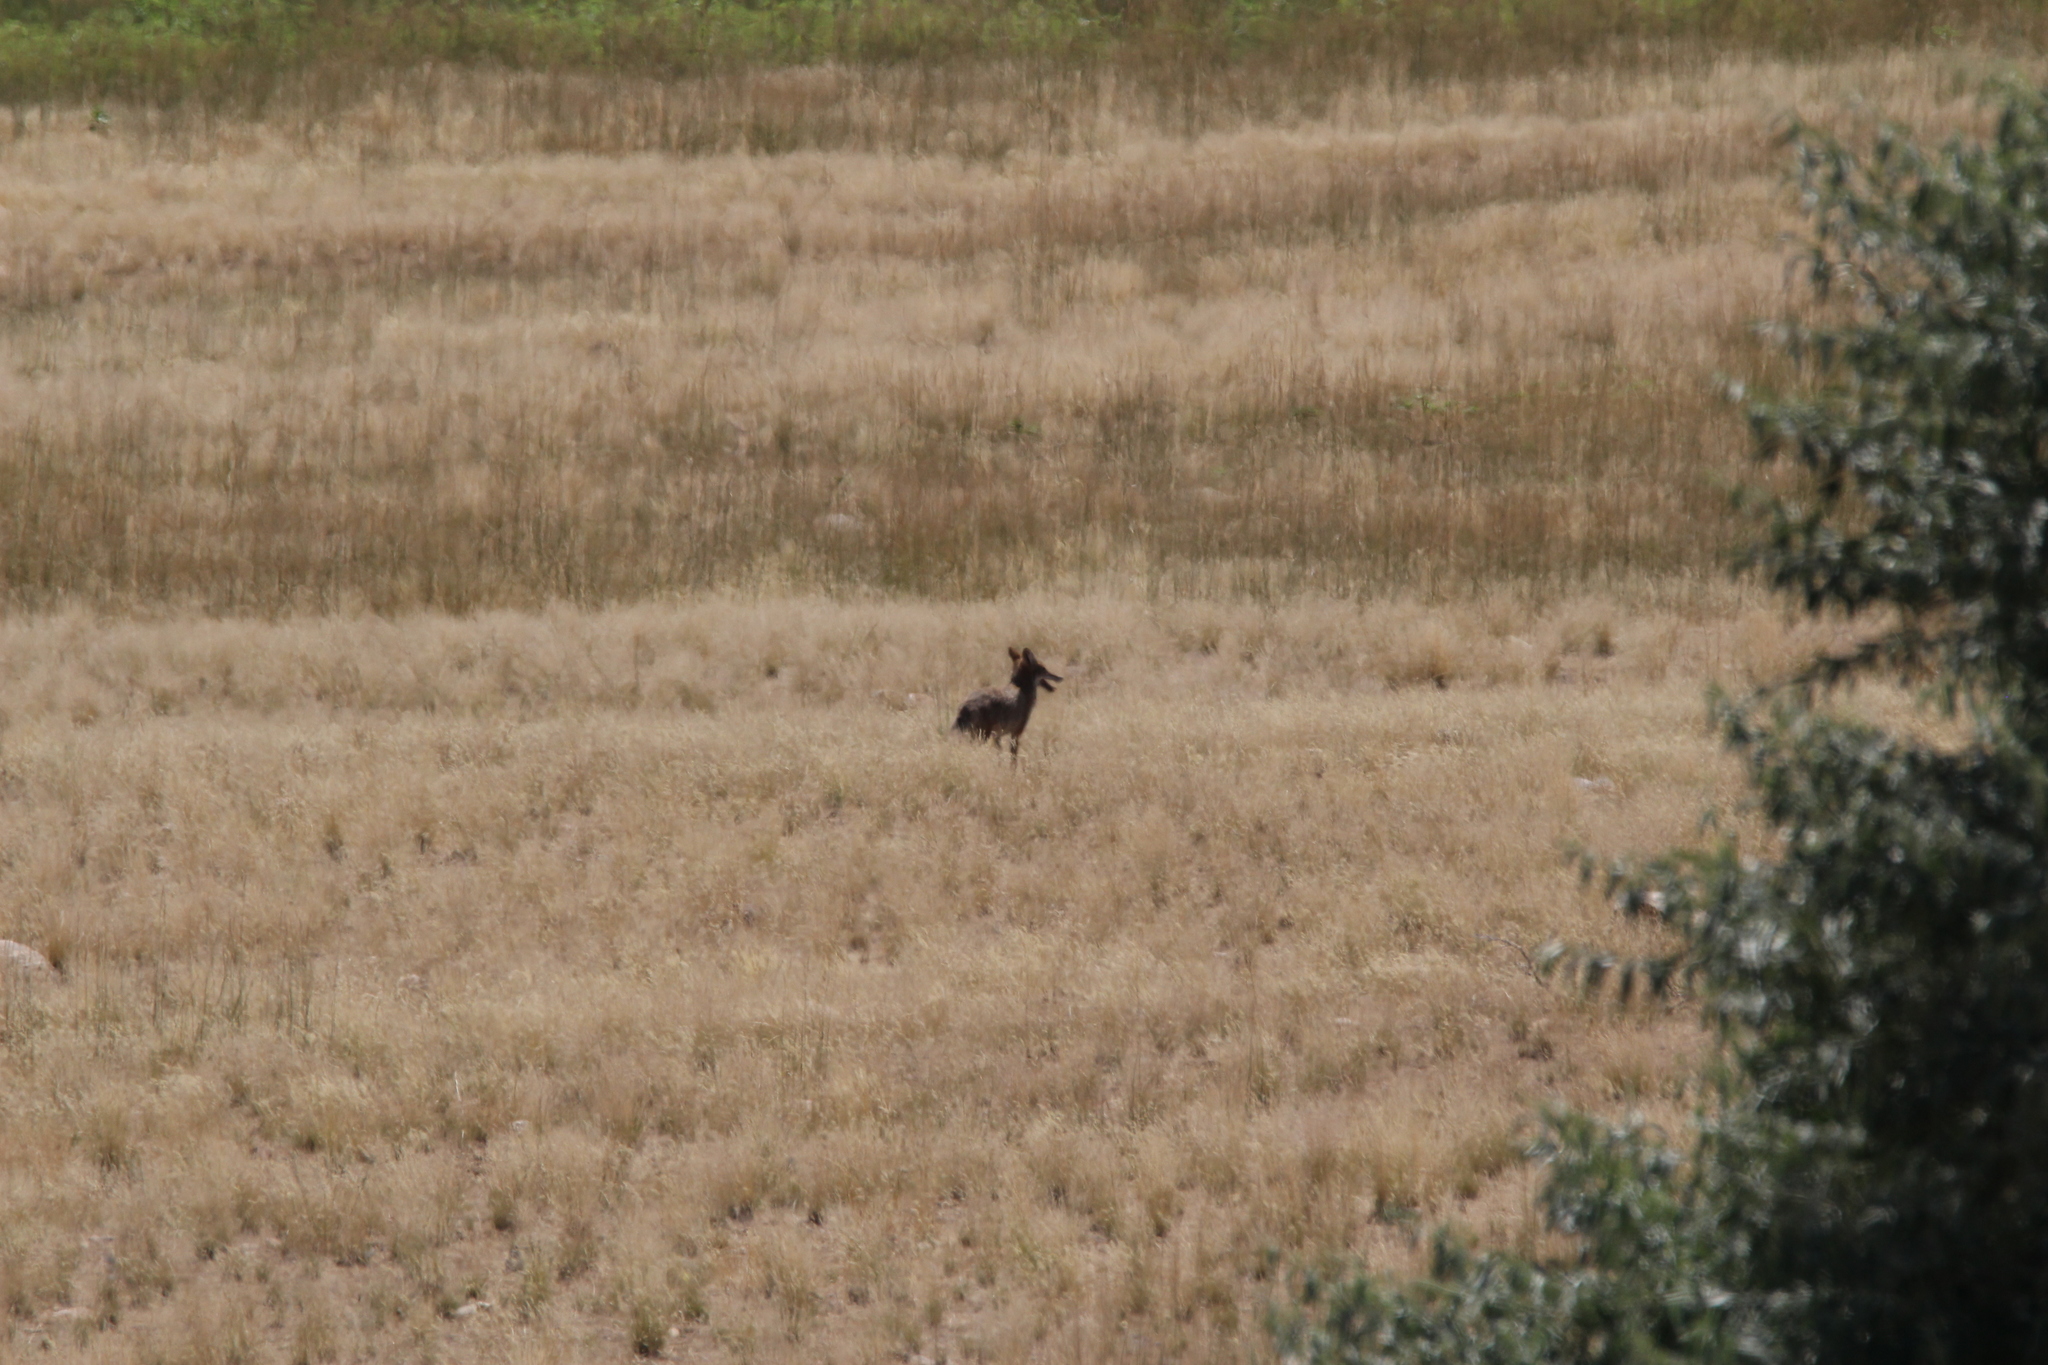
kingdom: Animalia
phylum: Chordata
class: Mammalia
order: Carnivora
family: Canidae
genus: Canis
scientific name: Canis latrans
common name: Coyote
